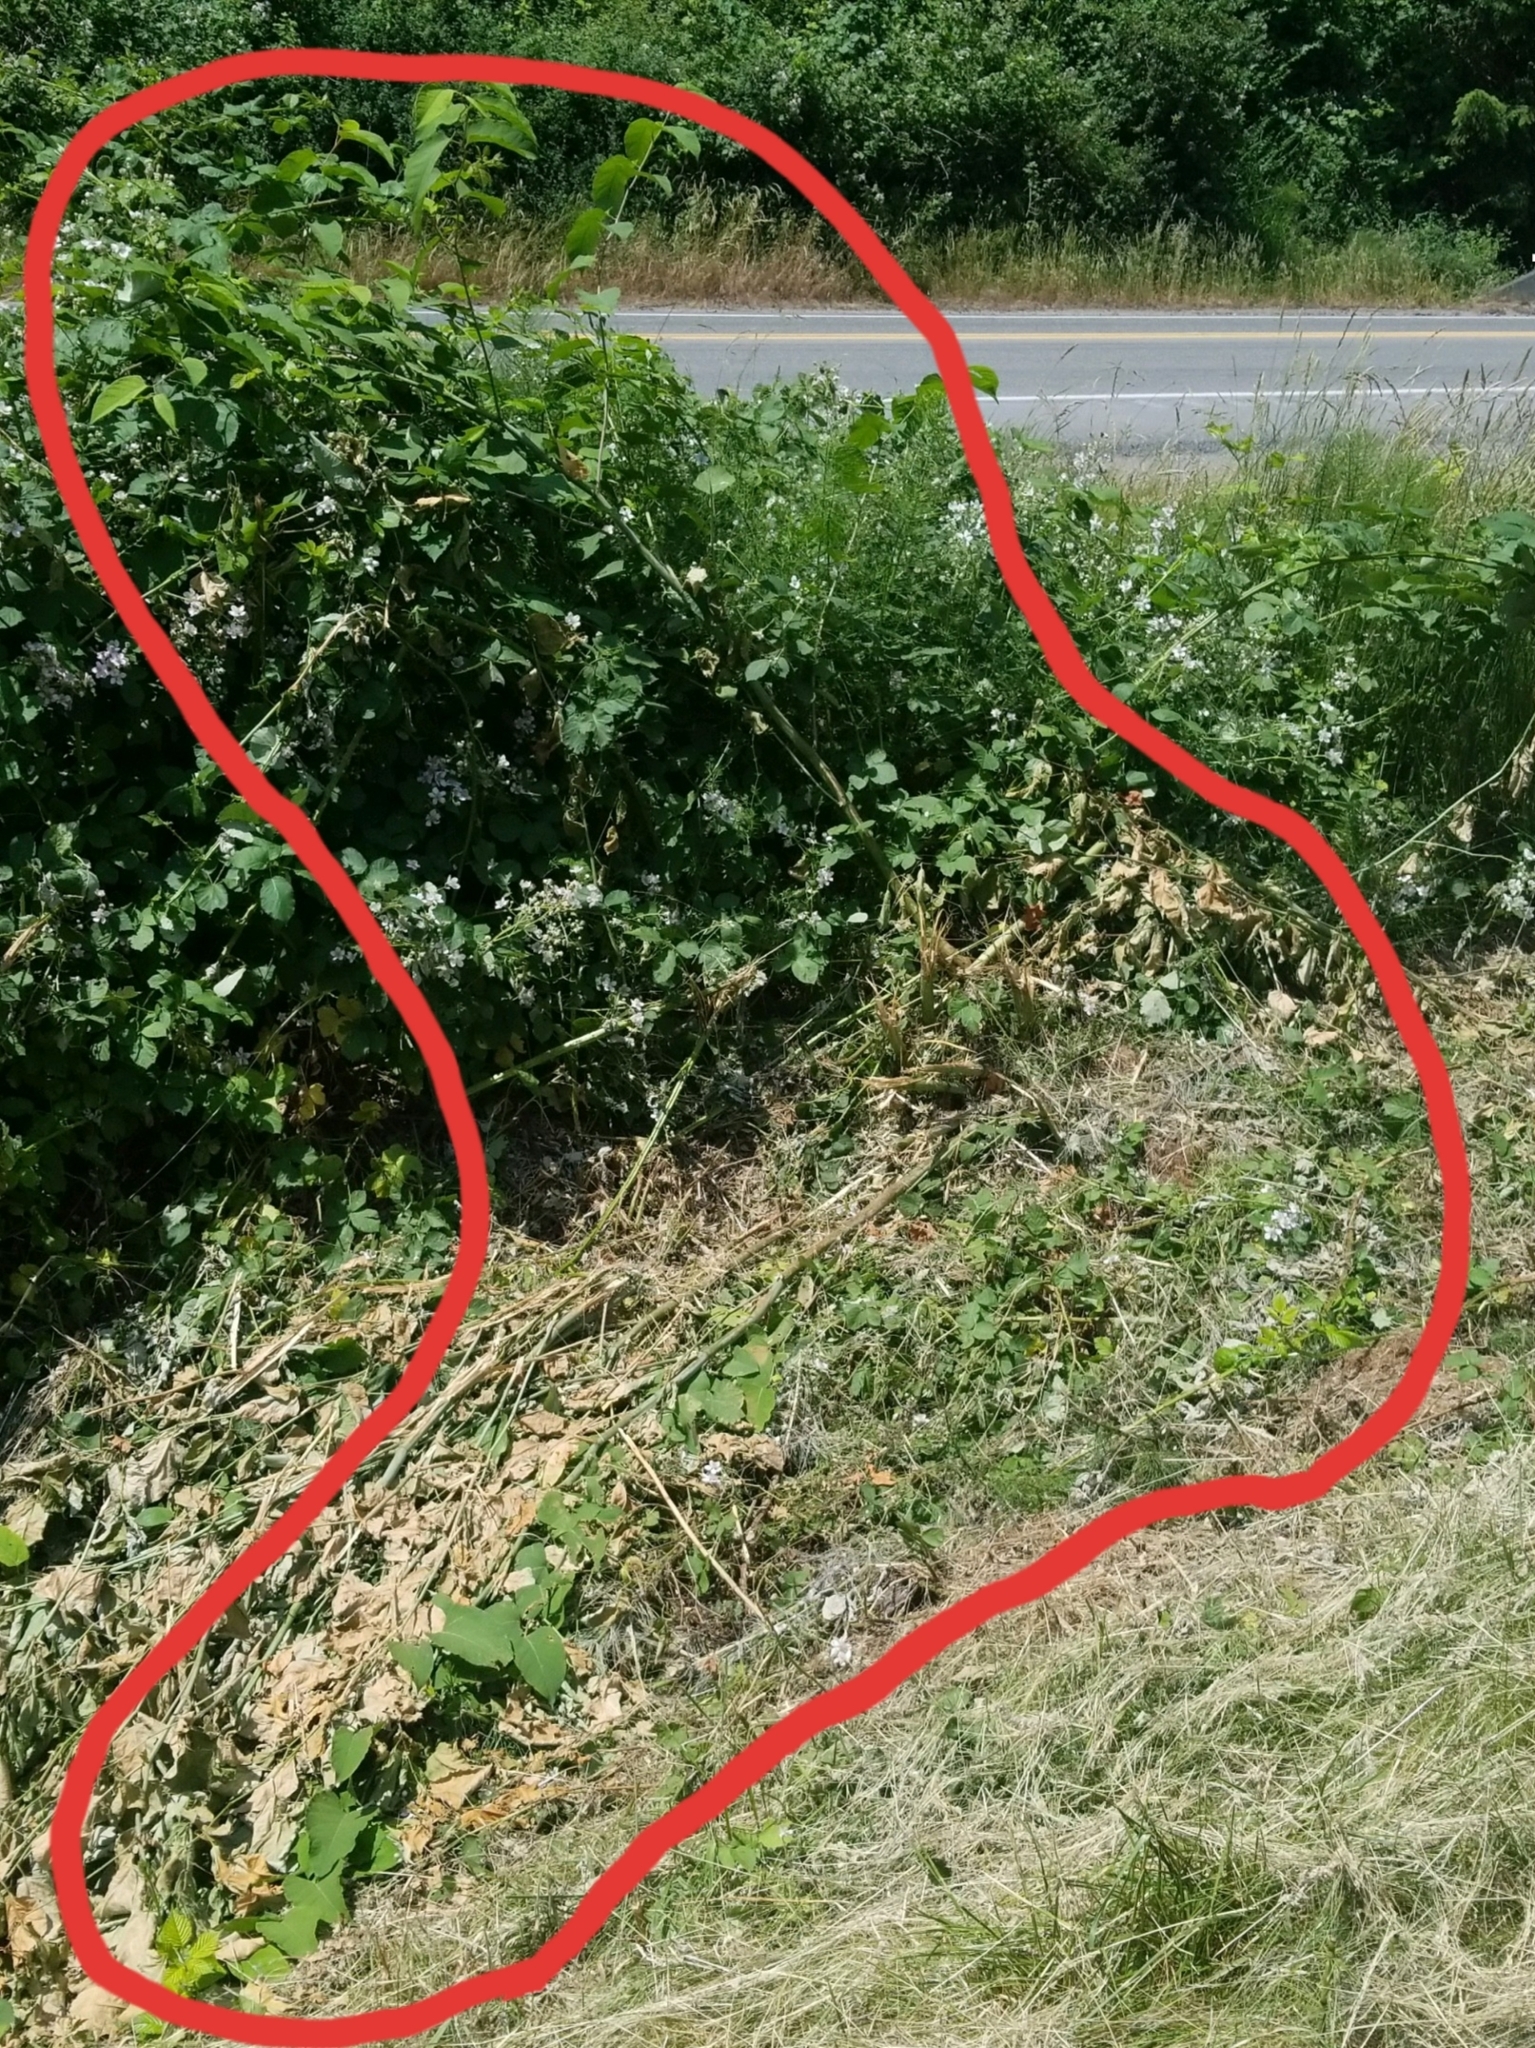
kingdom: Plantae
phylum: Tracheophyta
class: Magnoliopsida
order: Caryophyllales
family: Polygonaceae
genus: Reynoutria
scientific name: Reynoutria bohemica
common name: Bohemian knotweed
